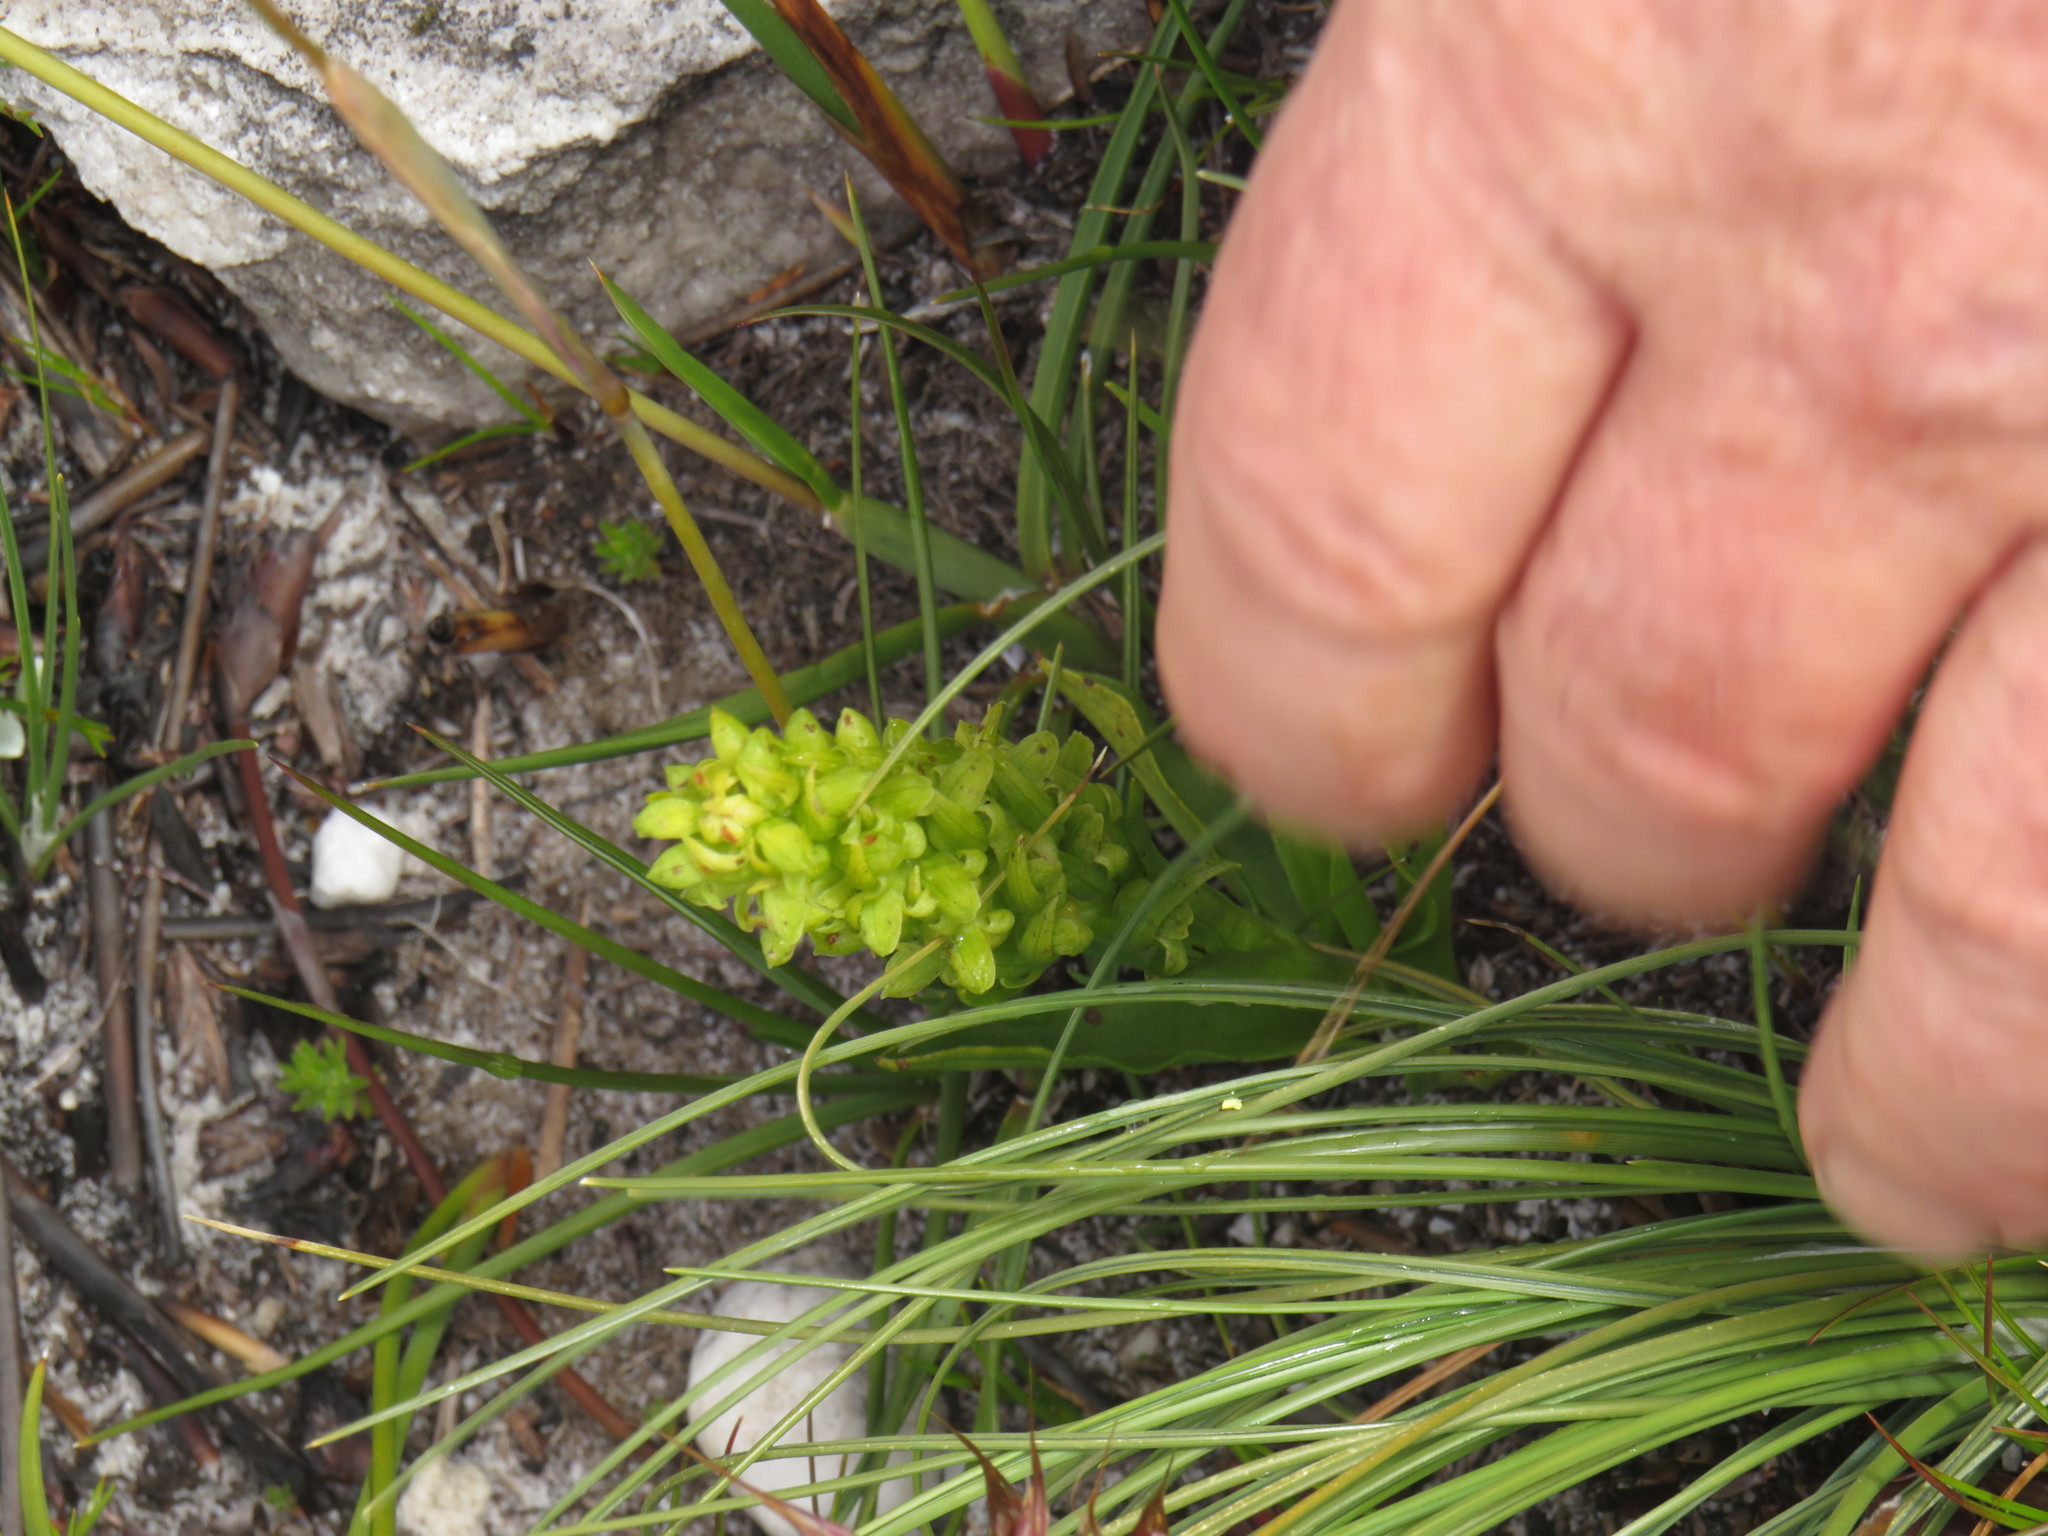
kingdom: Plantae
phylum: Tracheophyta
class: Liliopsida
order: Asparagales
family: Orchidaceae
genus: Disa
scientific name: Disa cylindrica
